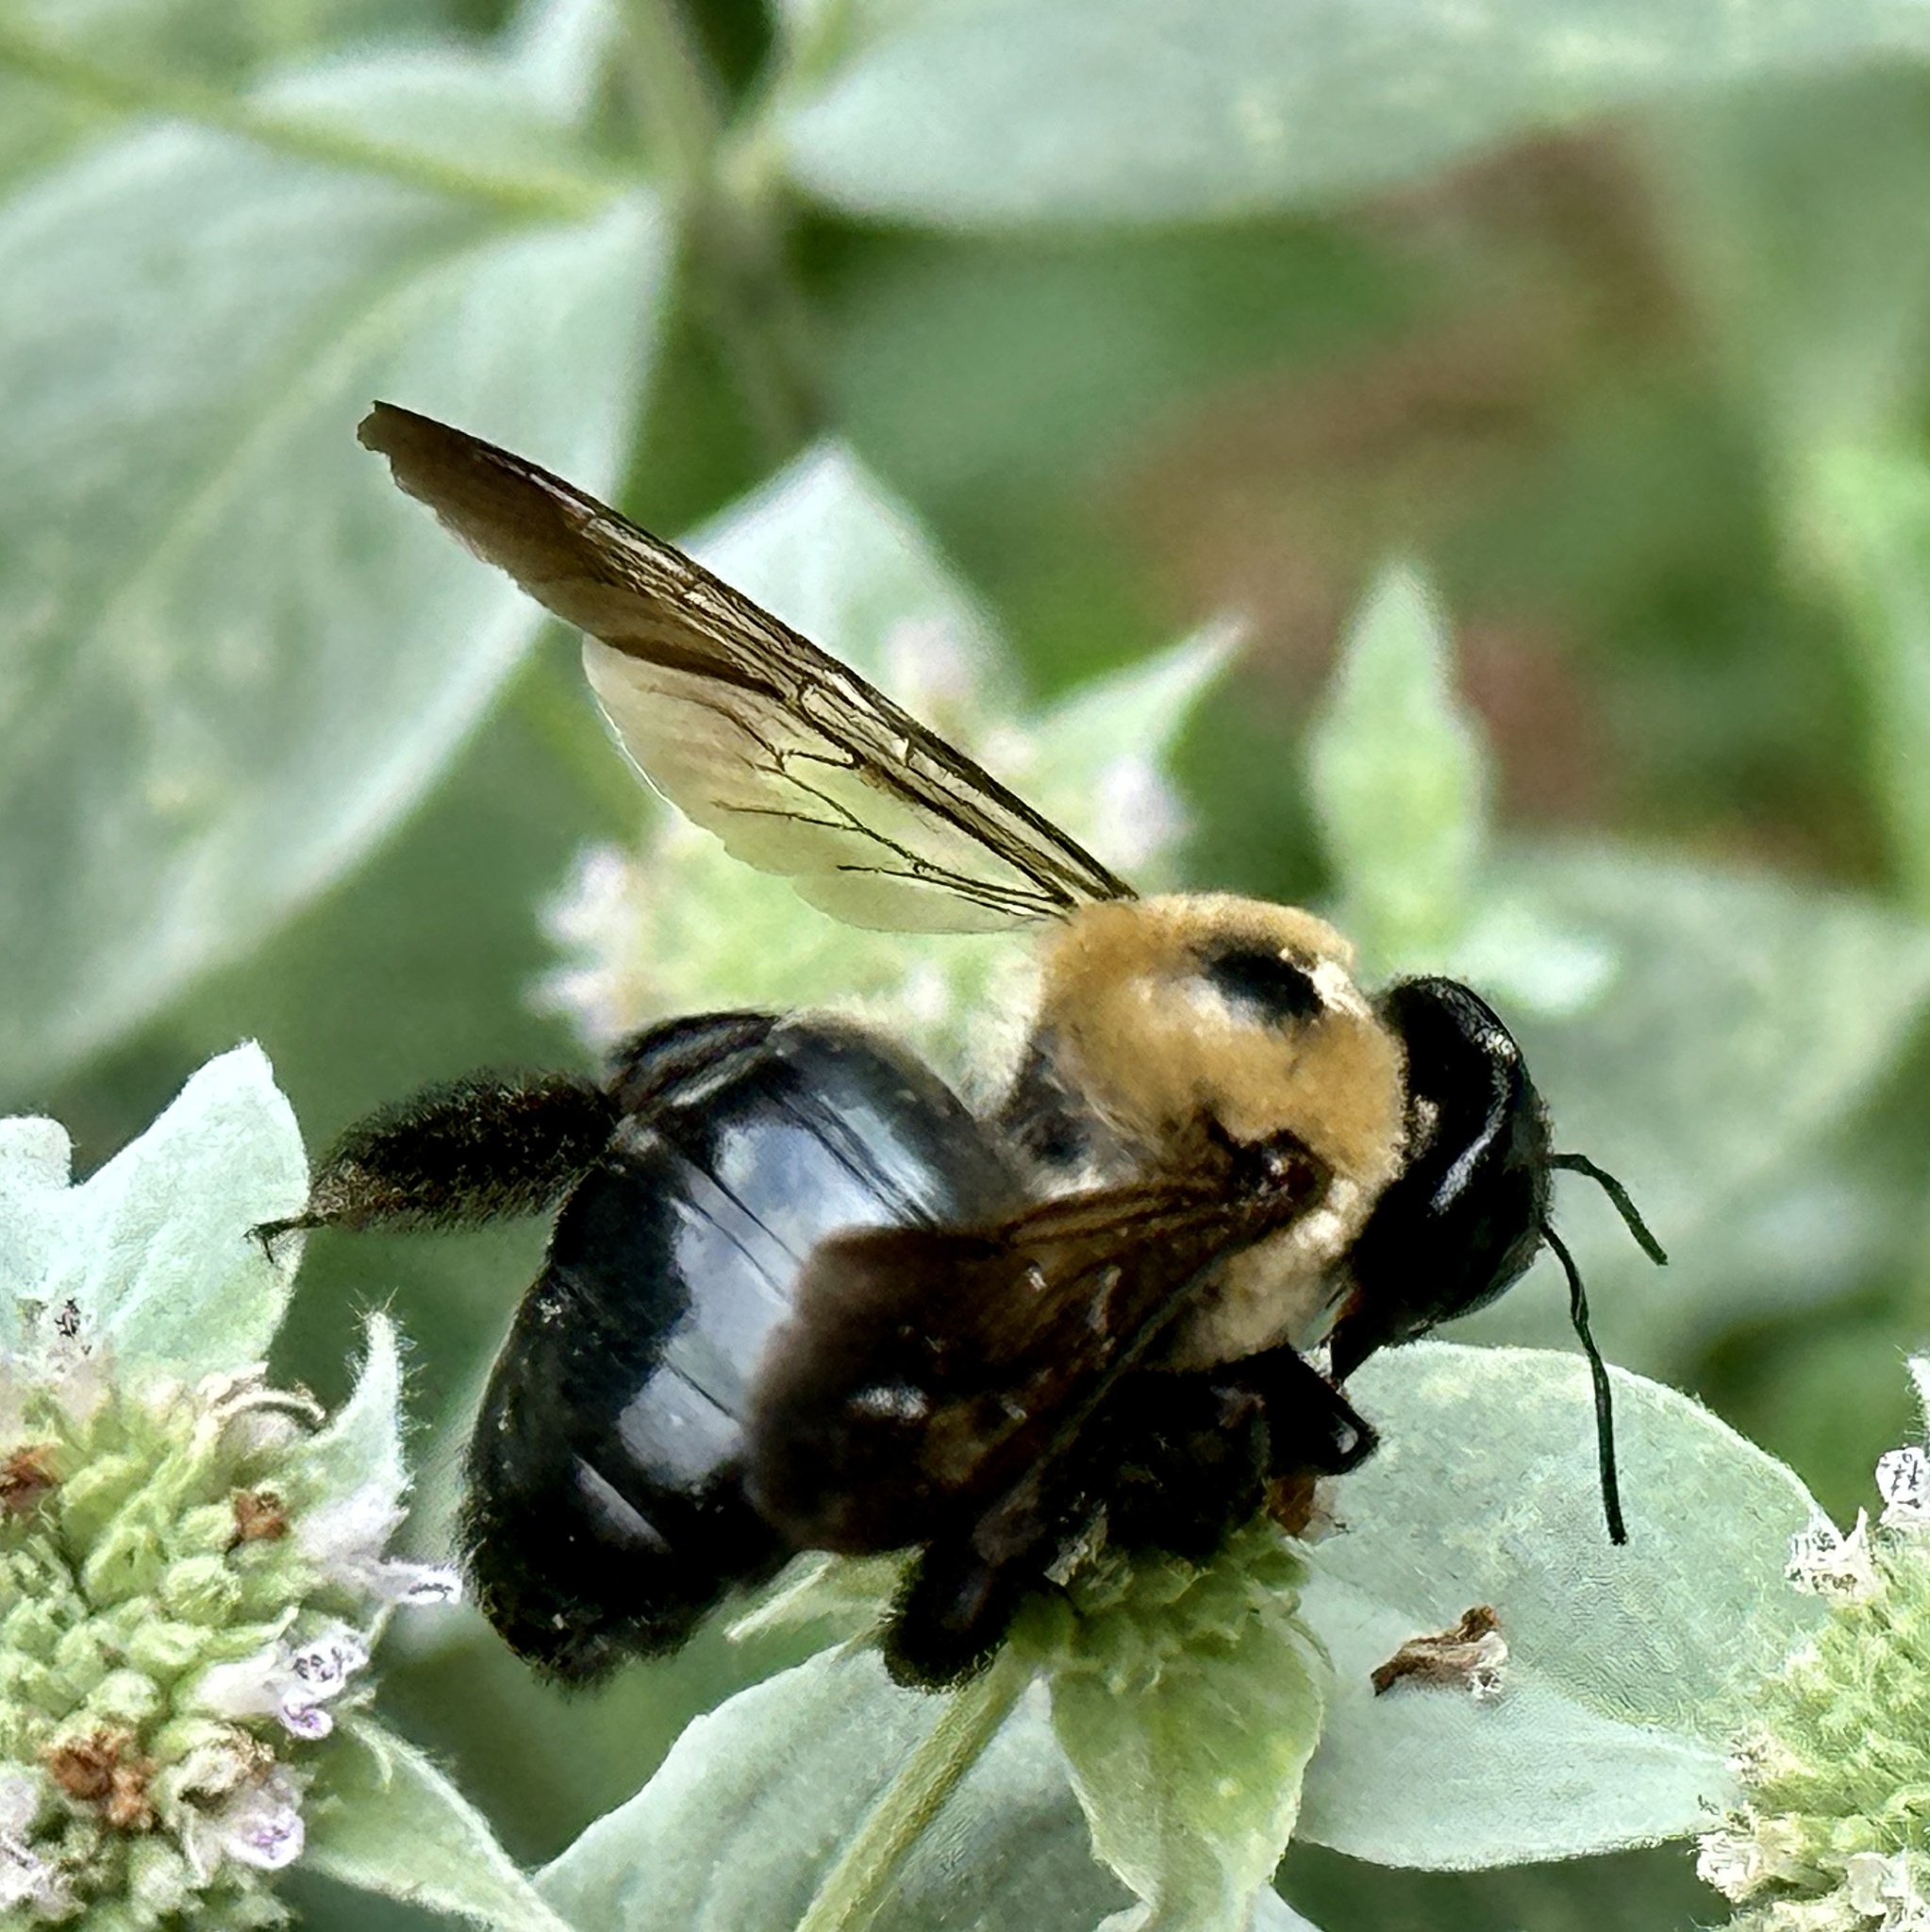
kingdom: Animalia
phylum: Arthropoda
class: Insecta
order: Hymenoptera
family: Apidae
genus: Xylocopa
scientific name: Xylocopa virginica
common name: Carpenter bee
